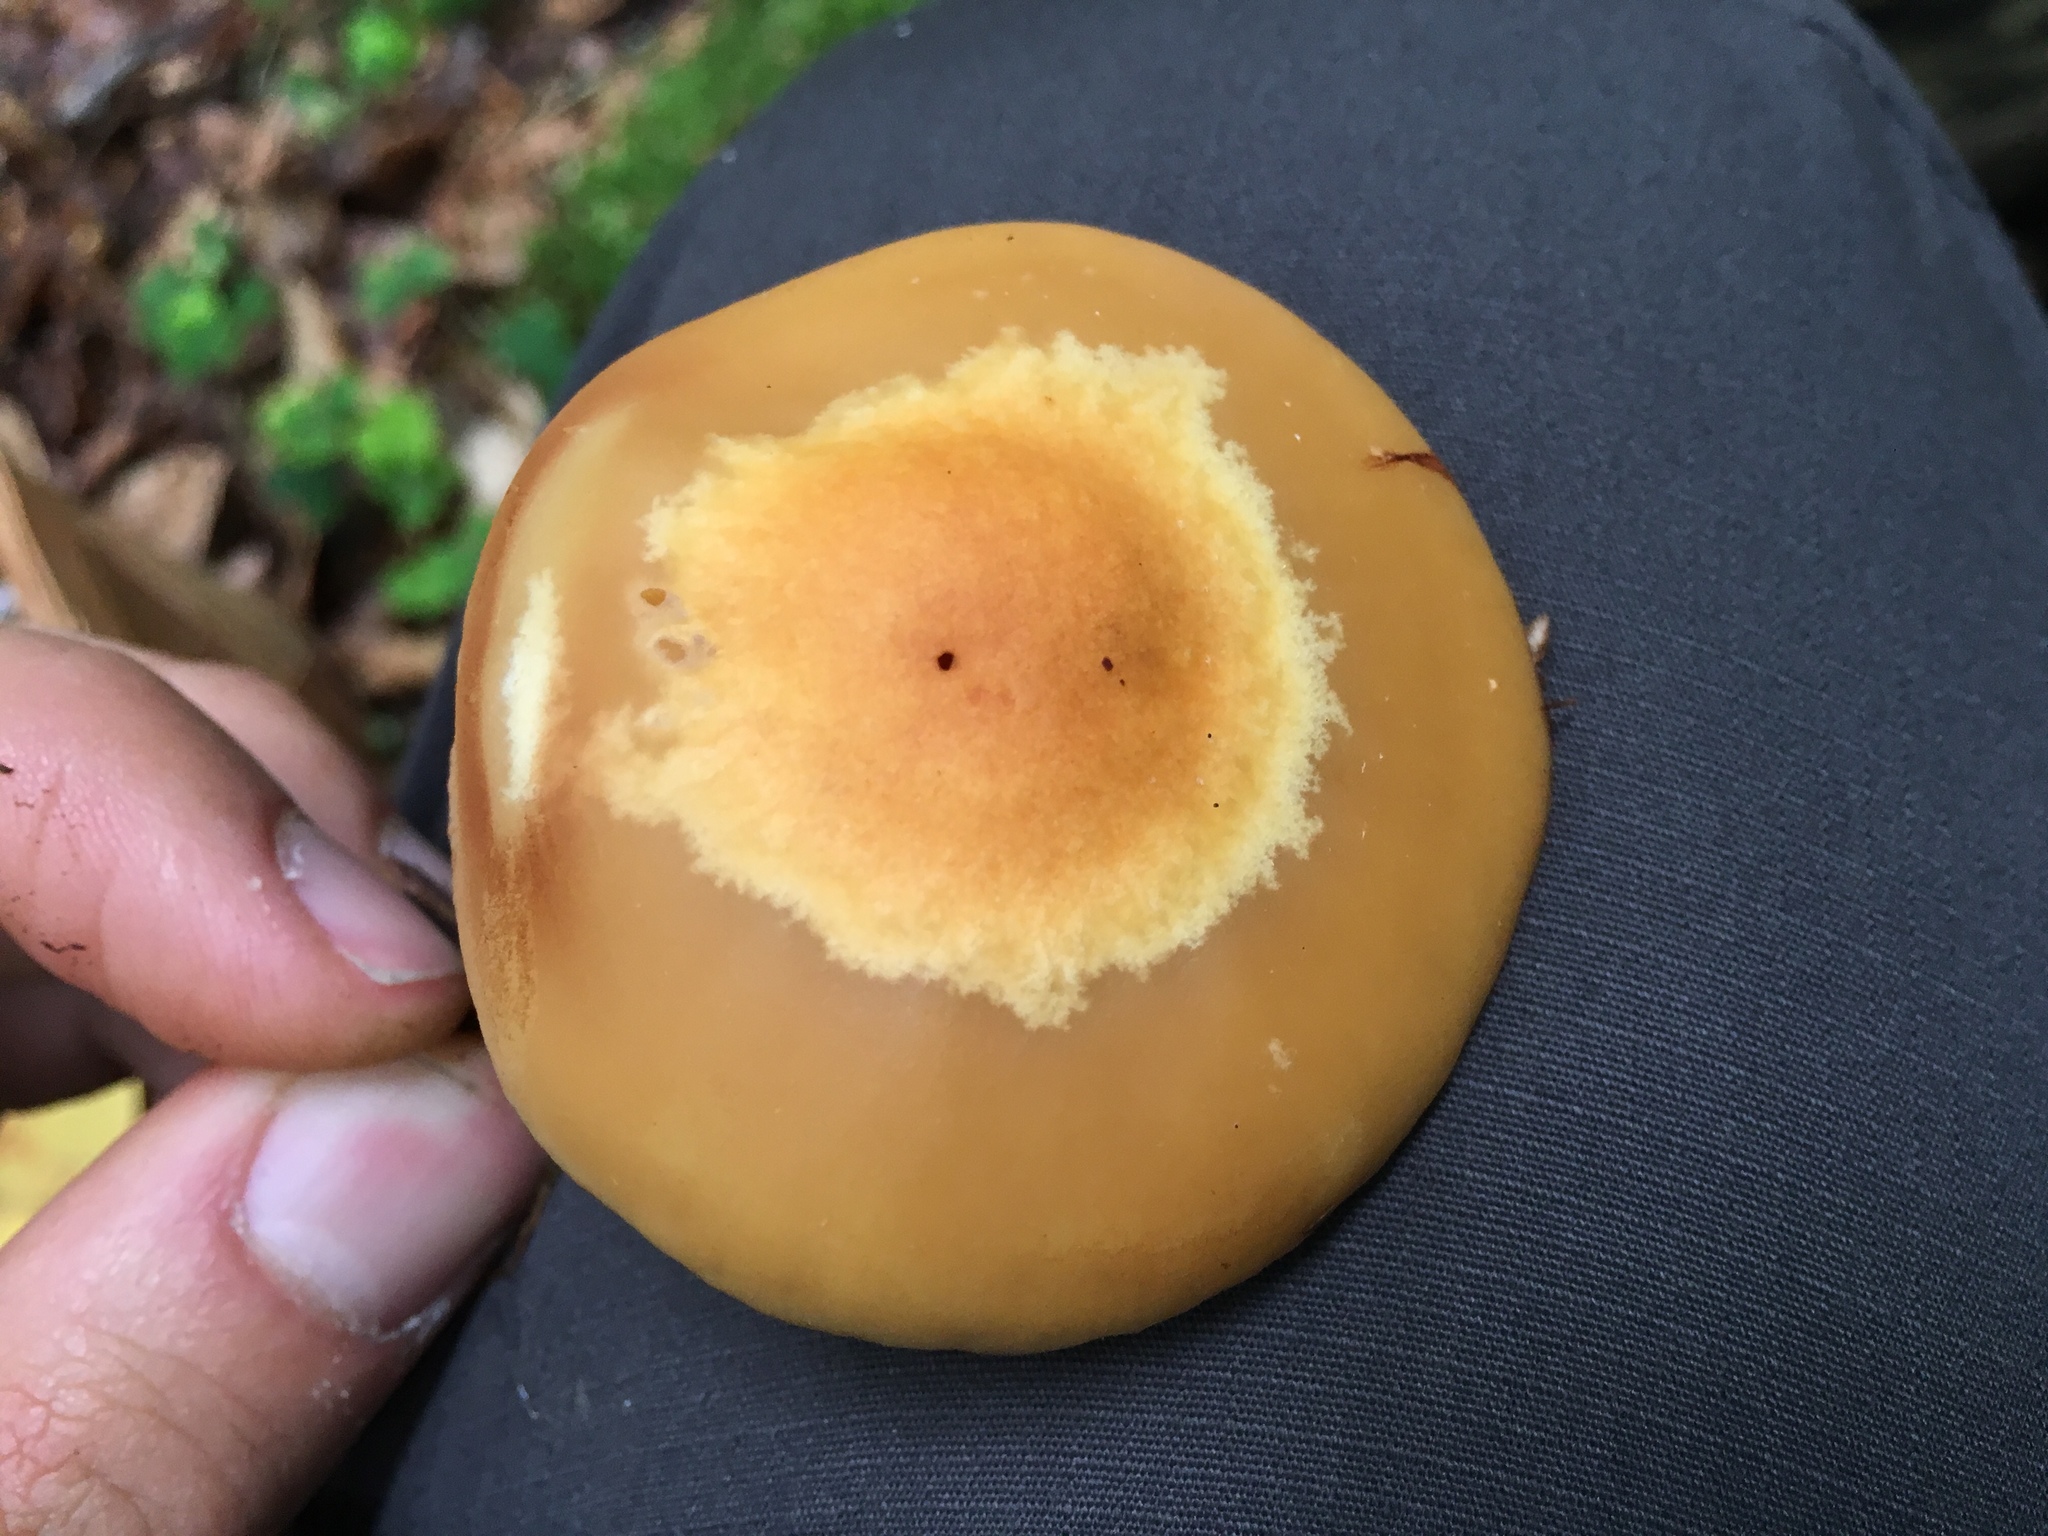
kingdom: Fungi
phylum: Basidiomycota
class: Agaricomycetes
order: Agaricales
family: Strophariaceae
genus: Kuehneromyces
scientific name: Kuehneromyces mutabilis
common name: Sheathed woodtuft
